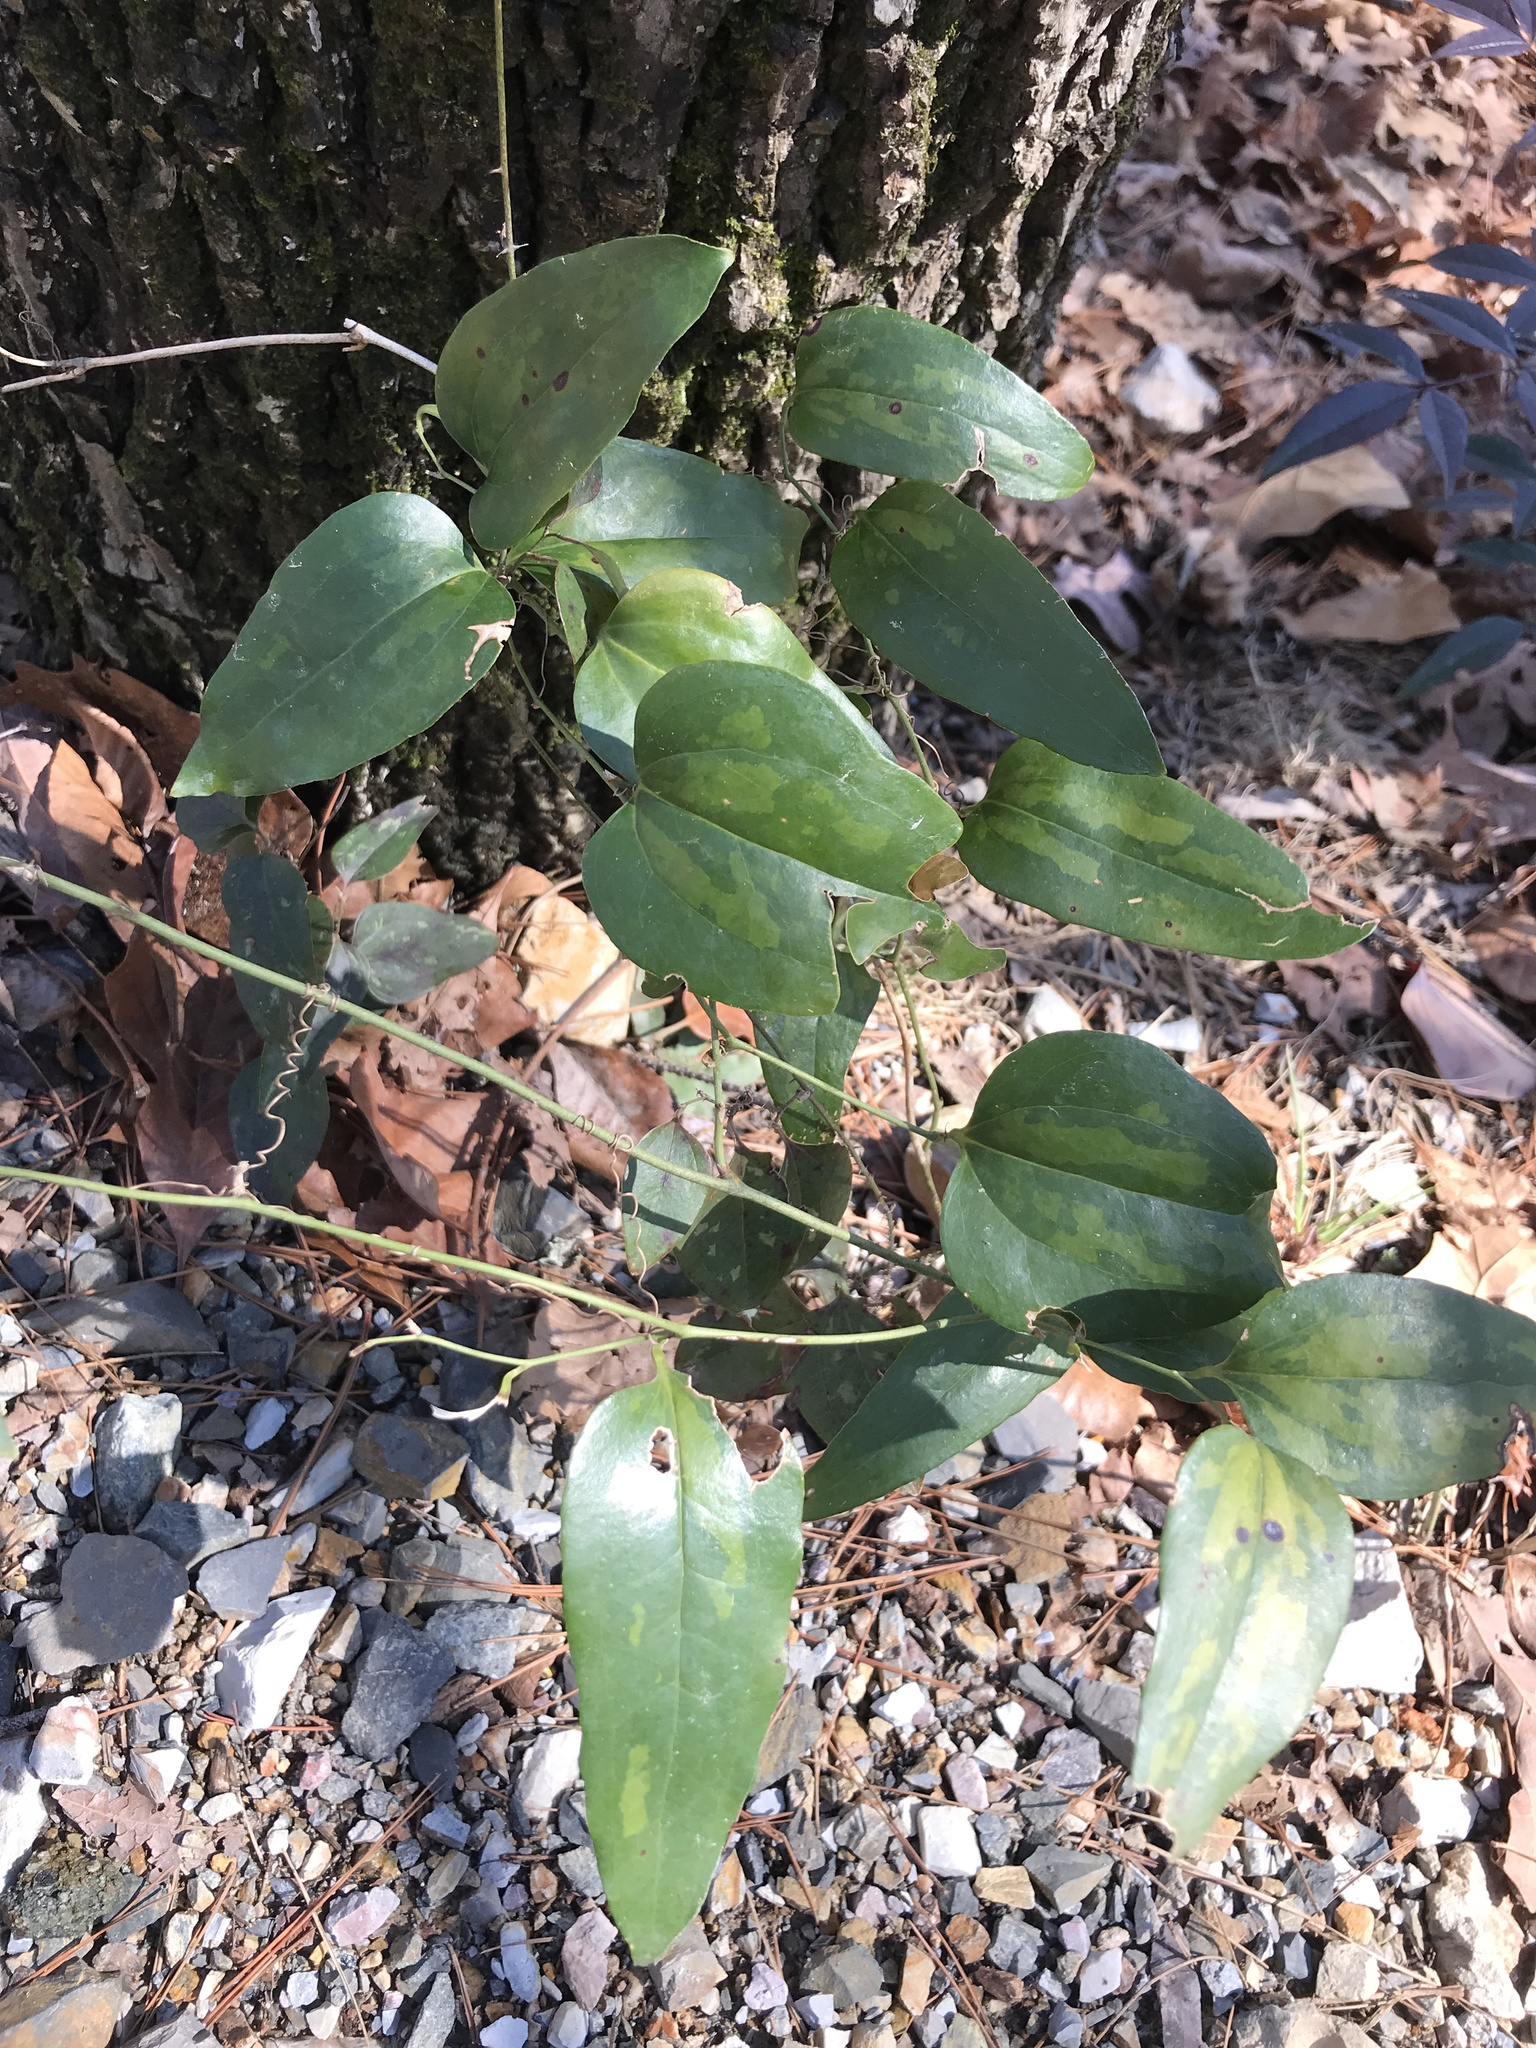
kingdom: Plantae
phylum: Tracheophyta
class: Liliopsida
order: Liliales
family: Smilacaceae
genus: Smilax
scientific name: Smilax maritima
